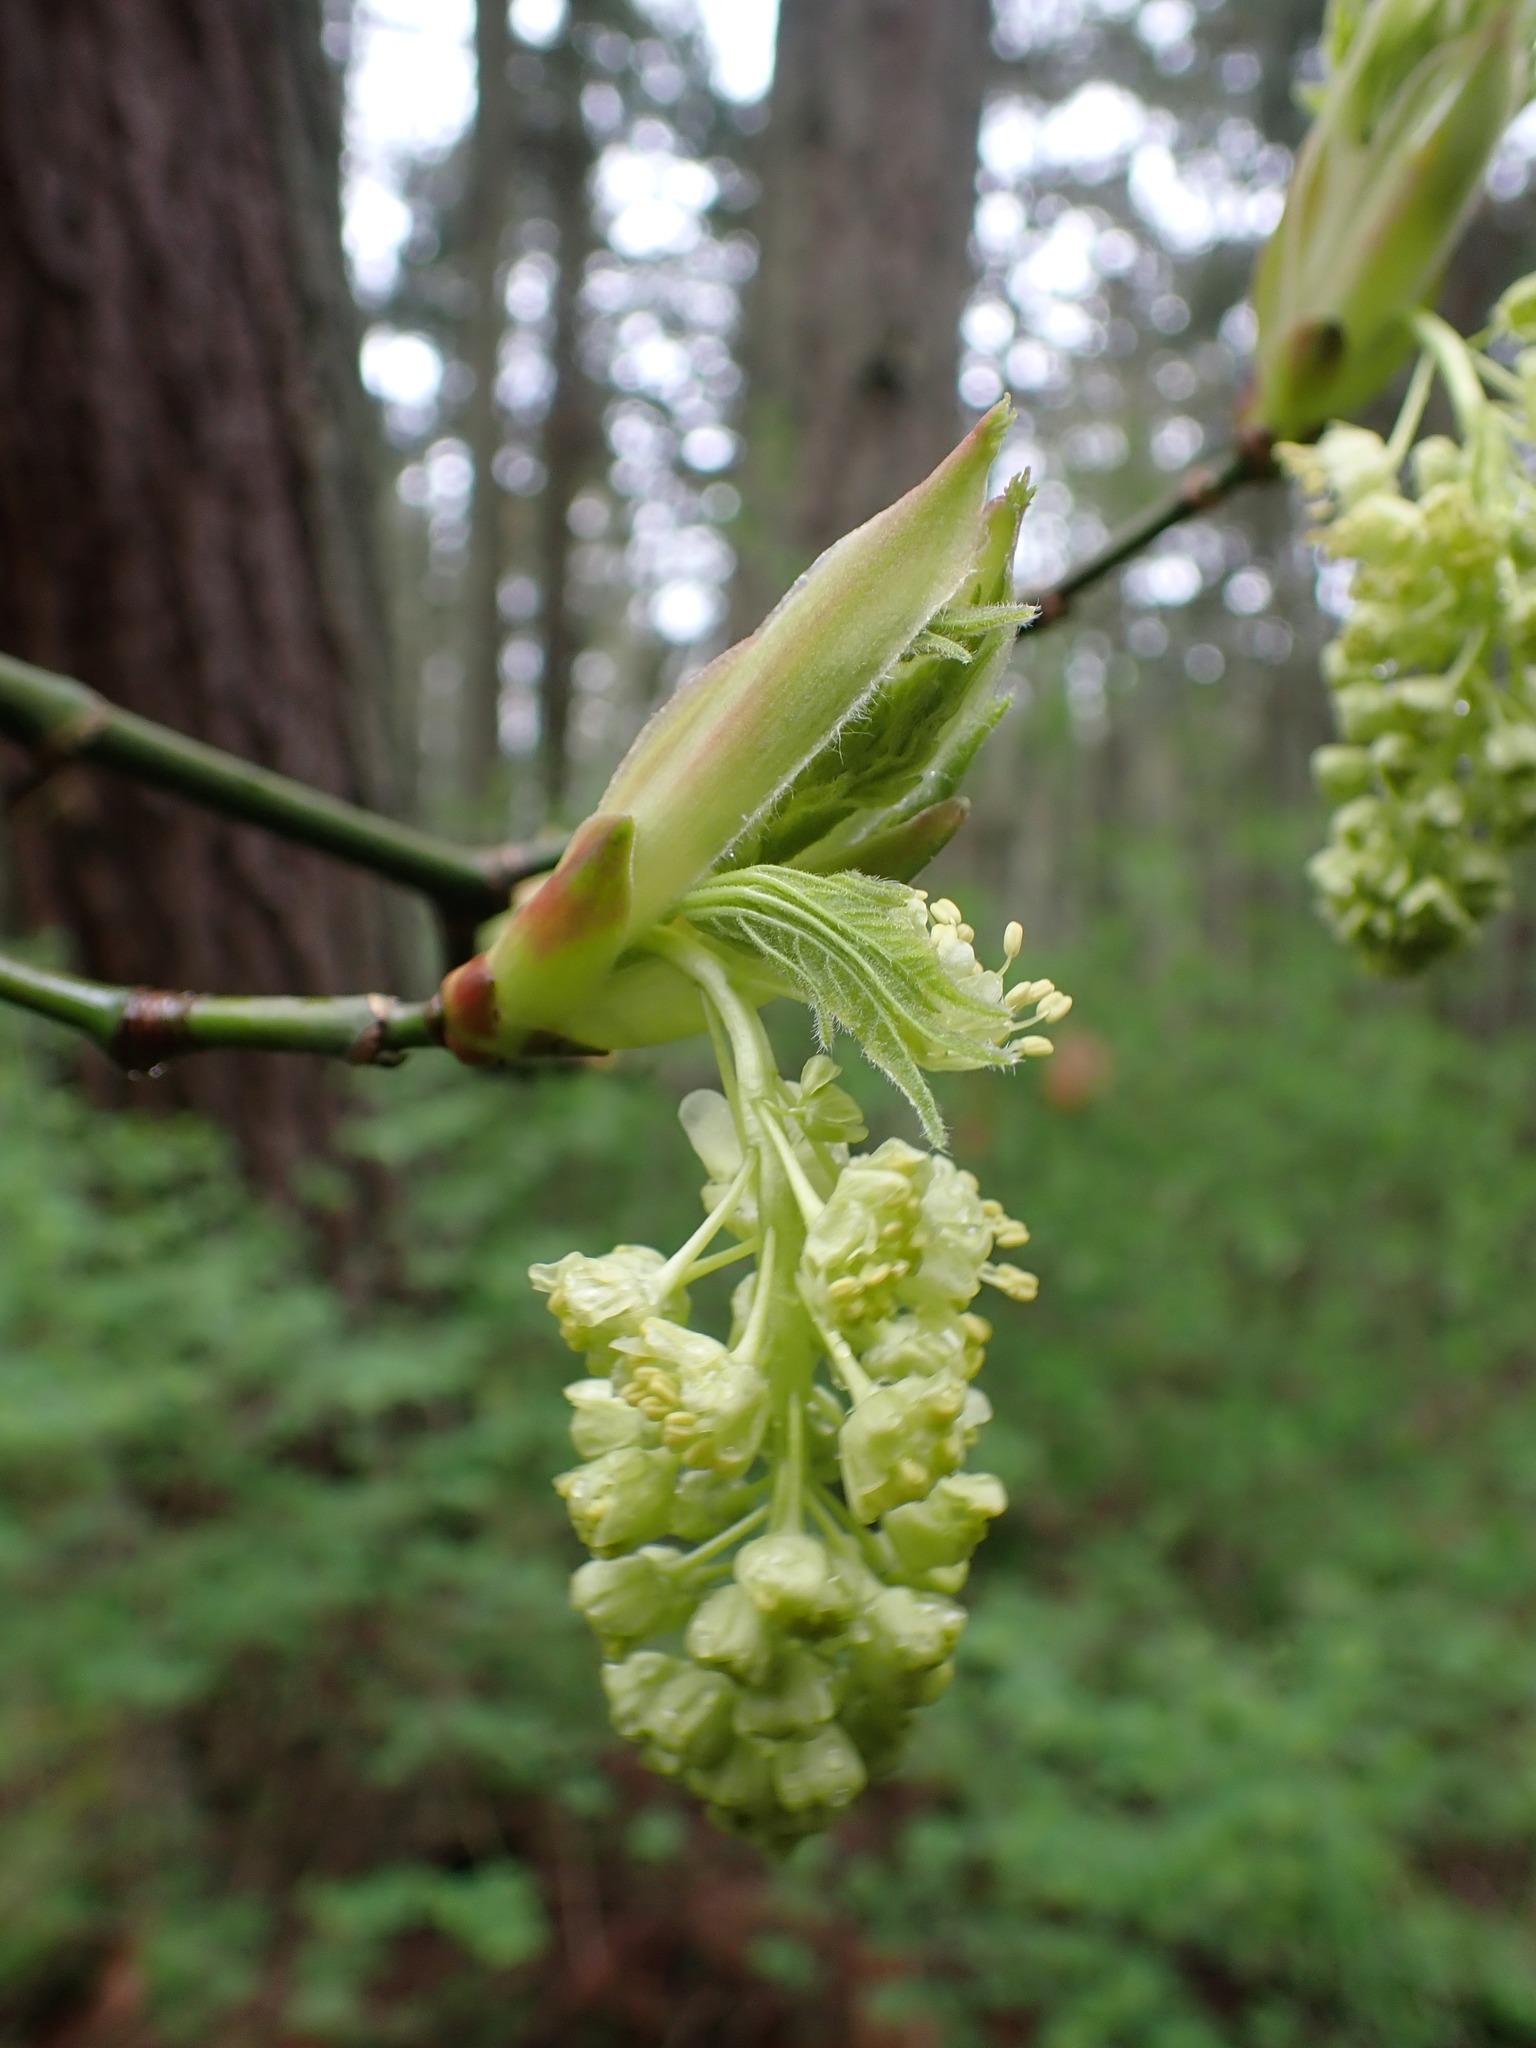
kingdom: Plantae
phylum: Tracheophyta
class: Magnoliopsida
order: Sapindales
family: Sapindaceae
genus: Acer
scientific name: Acer macrophyllum
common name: Oregon maple
